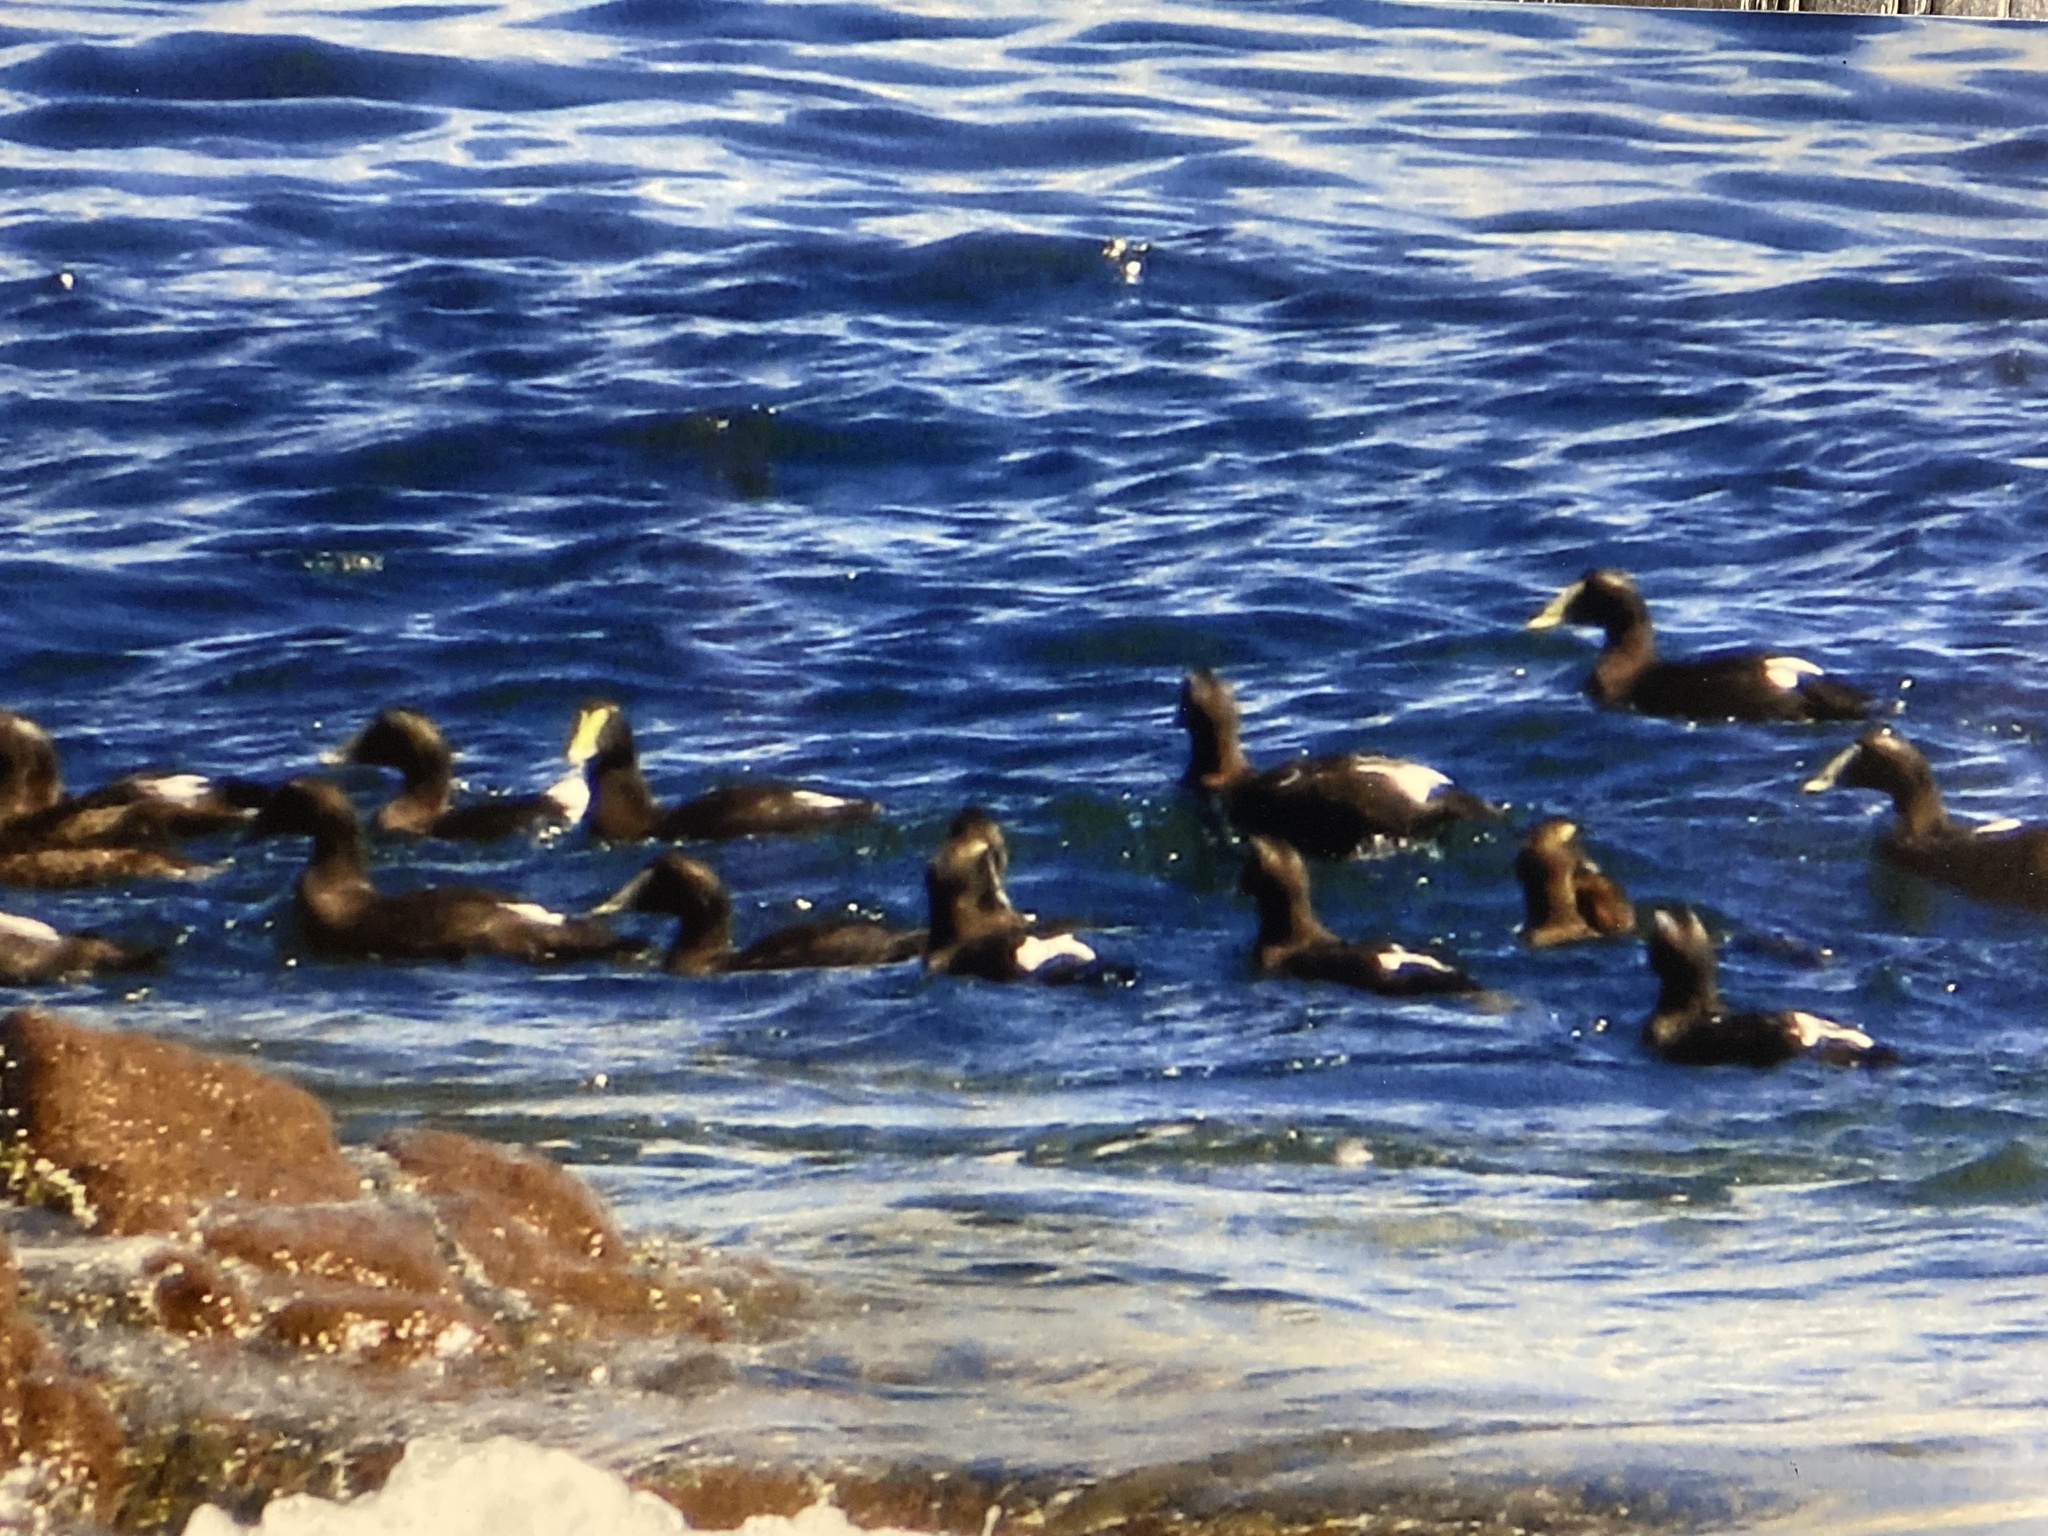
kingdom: Animalia
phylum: Chordata
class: Aves
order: Anseriformes
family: Anatidae
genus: Somateria
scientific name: Somateria mollissima
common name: Common eider
